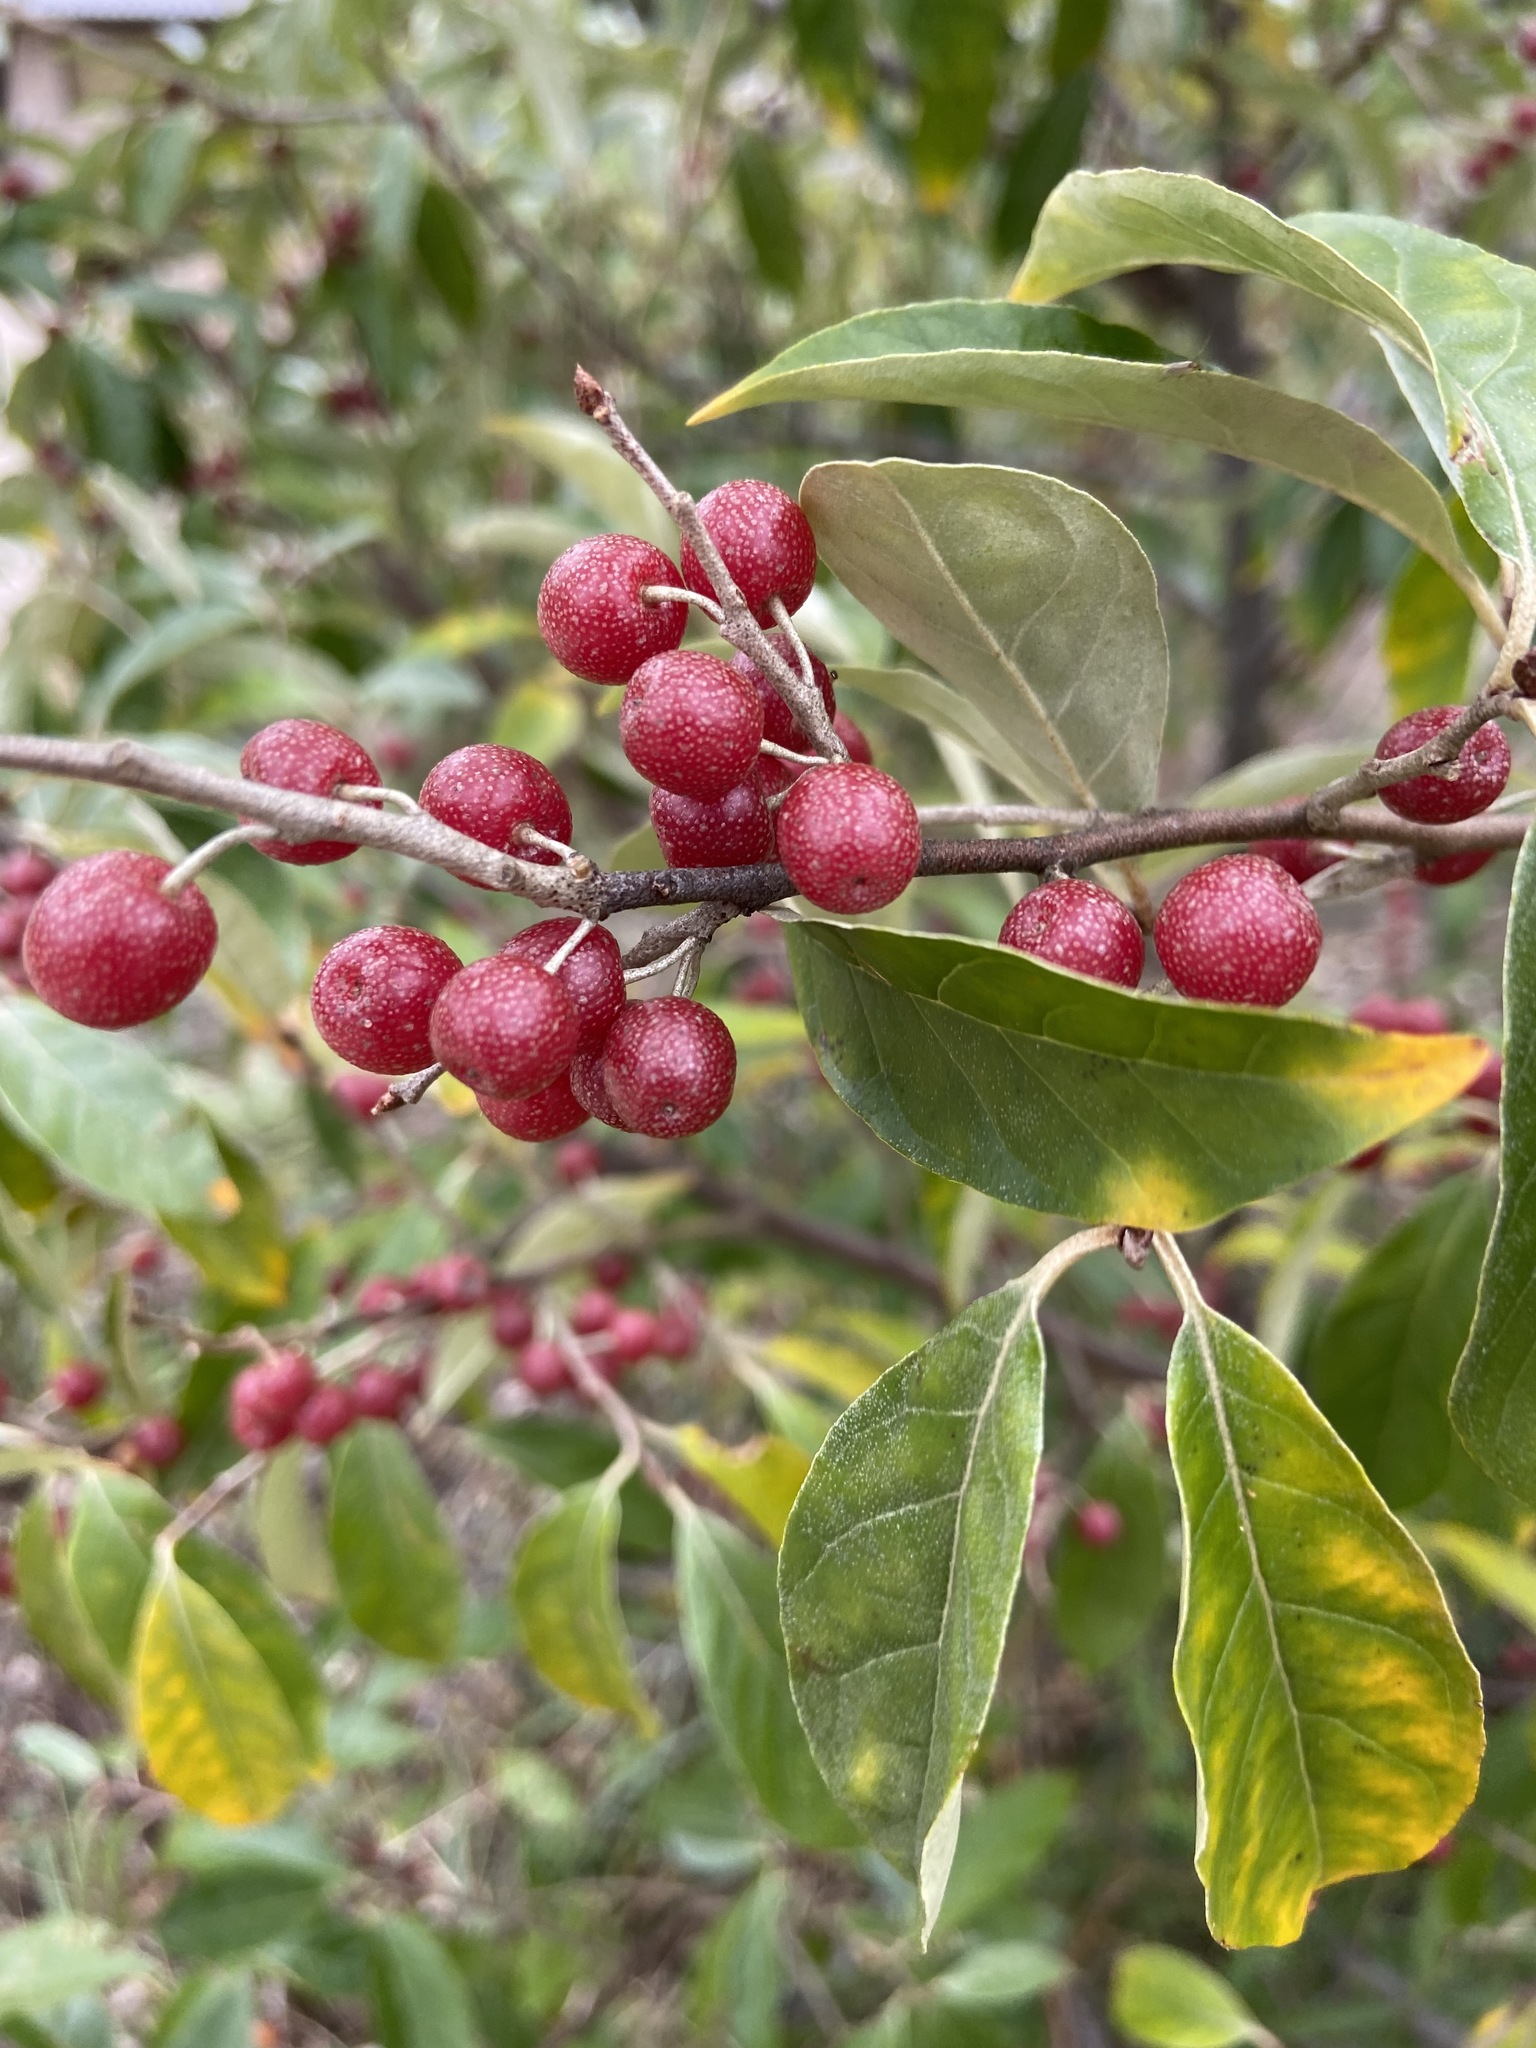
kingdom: Plantae
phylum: Tracheophyta
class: Magnoliopsida
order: Rosales
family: Elaeagnaceae
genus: Elaeagnus
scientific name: Elaeagnus umbellata
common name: Autumn olive
